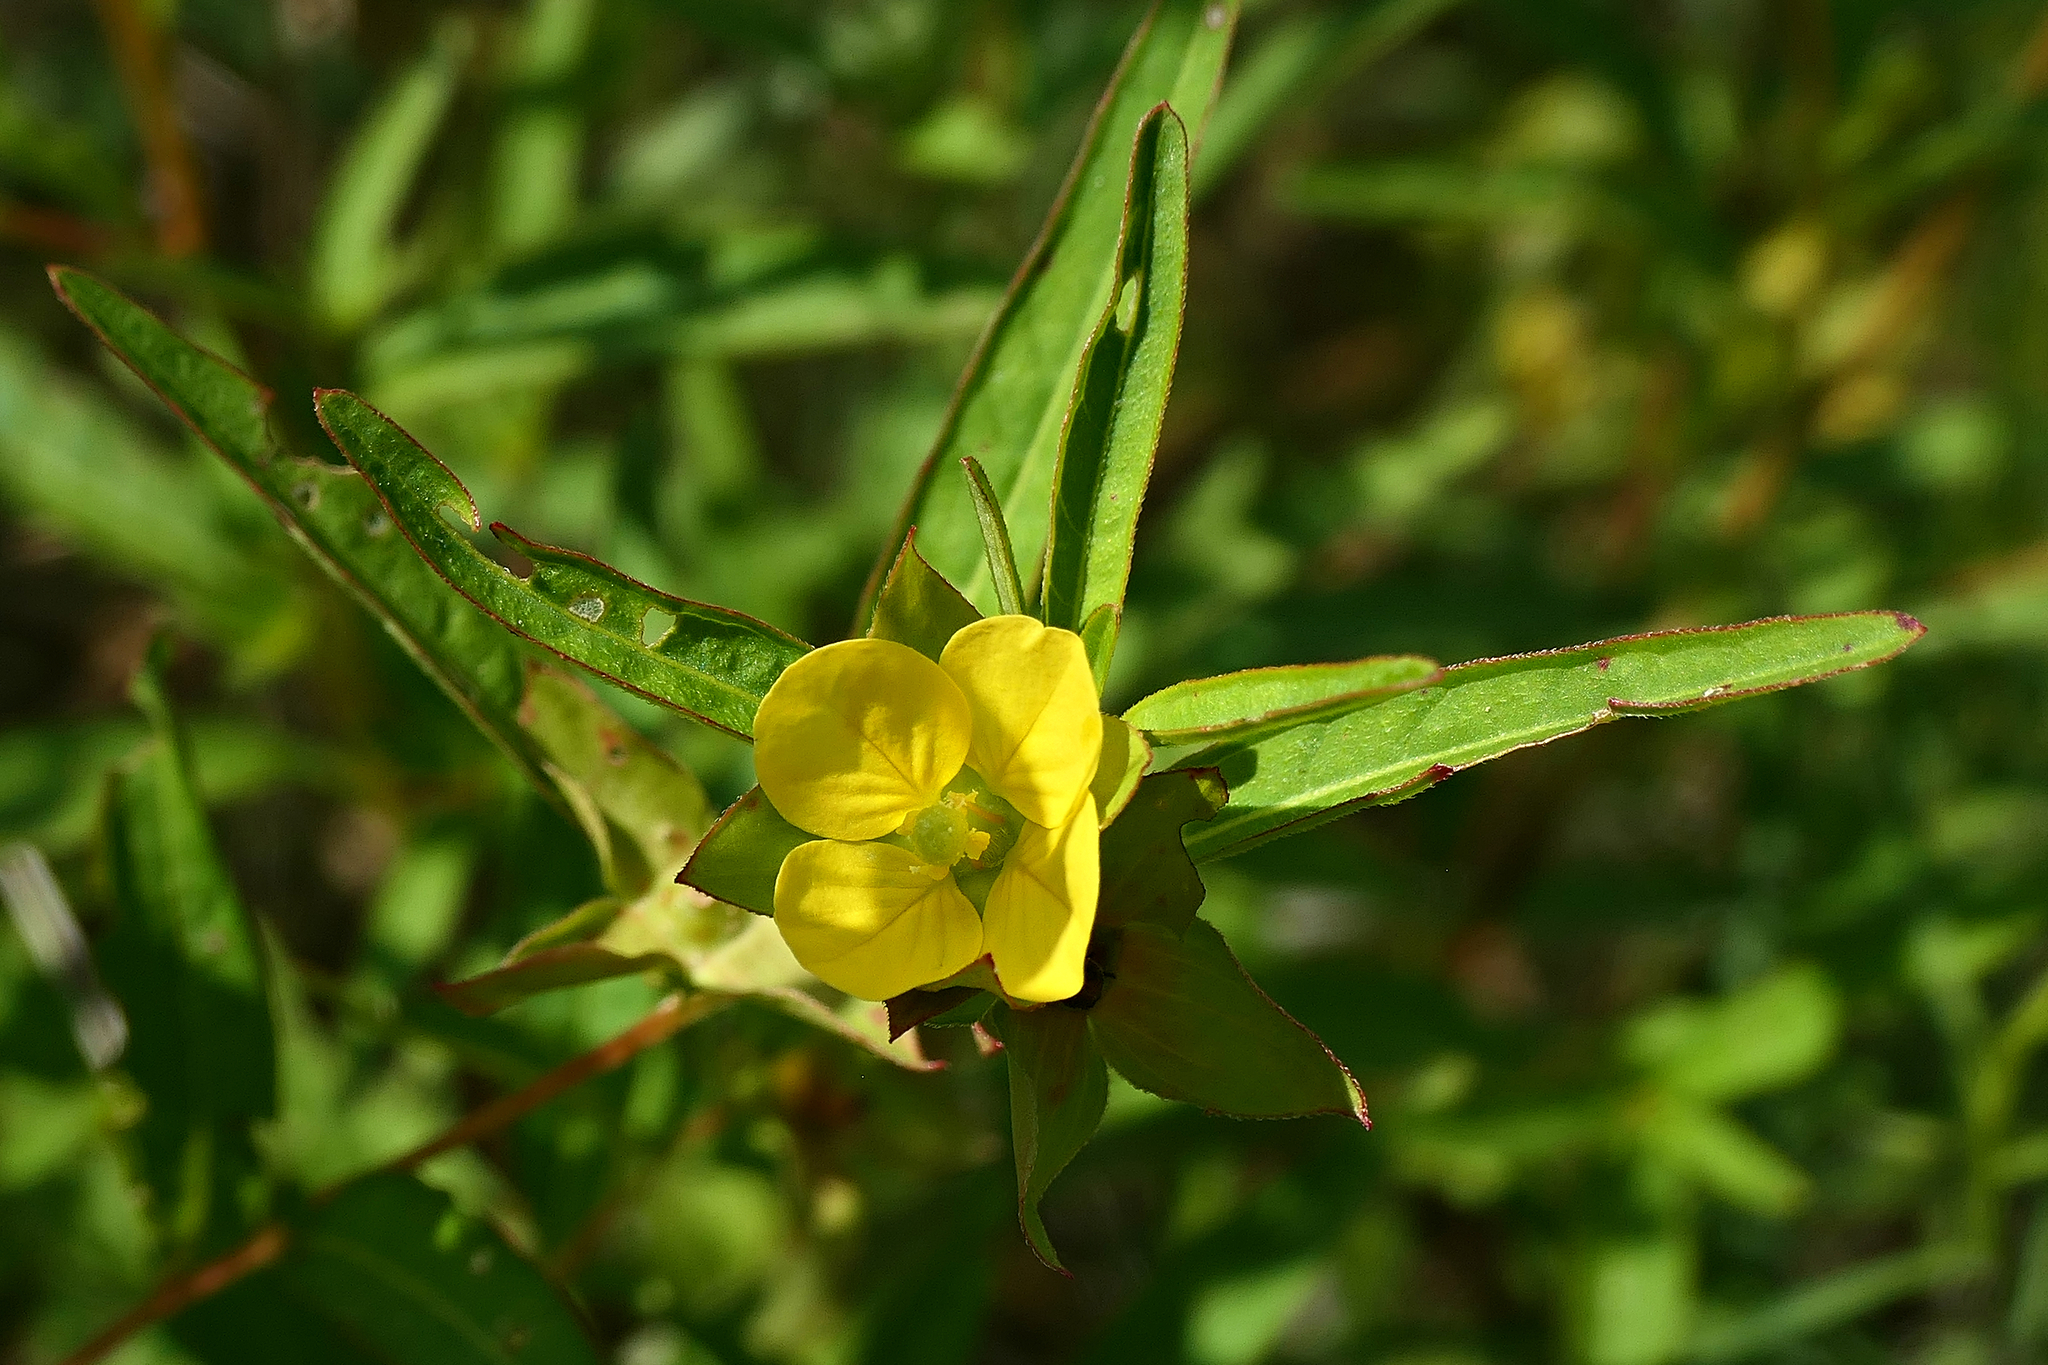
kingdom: Plantae
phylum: Tracheophyta
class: Magnoliopsida
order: Myrtales
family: Onagraceae
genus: Ludwigia
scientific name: Ludwigia alternifolia
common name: Rattlebox
